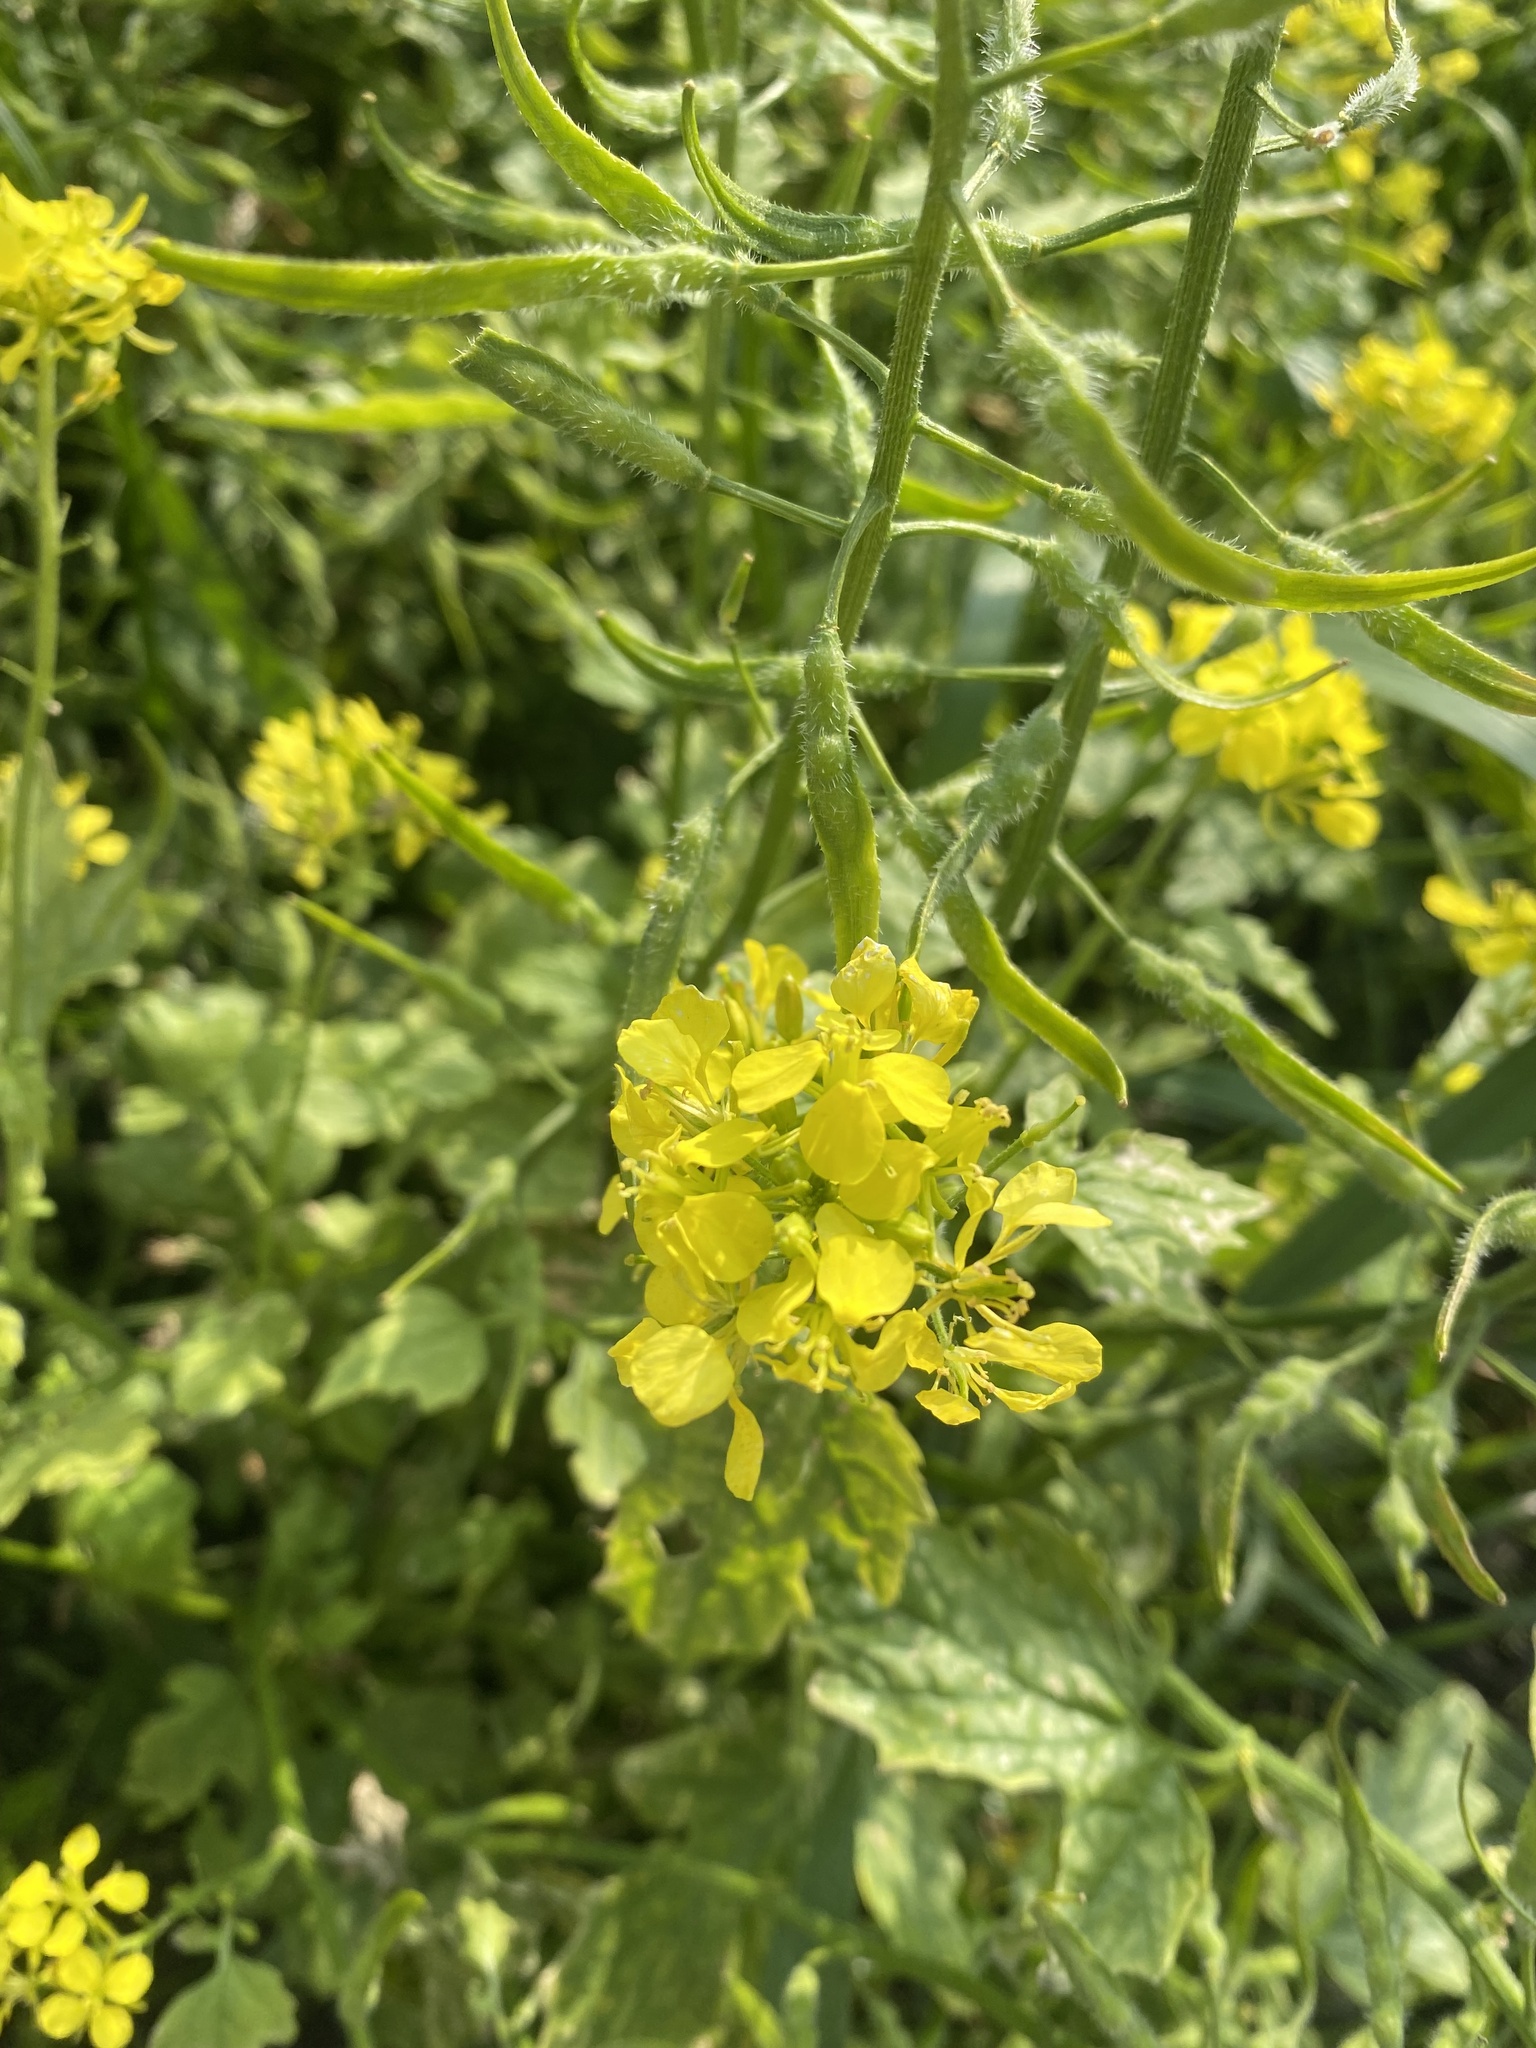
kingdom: Plantae
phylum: Tracheophyta
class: Magnoliopsida
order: Brassicales
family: Brassicaceae
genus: Sinapis
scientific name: Sinapis alba
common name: White mustard
